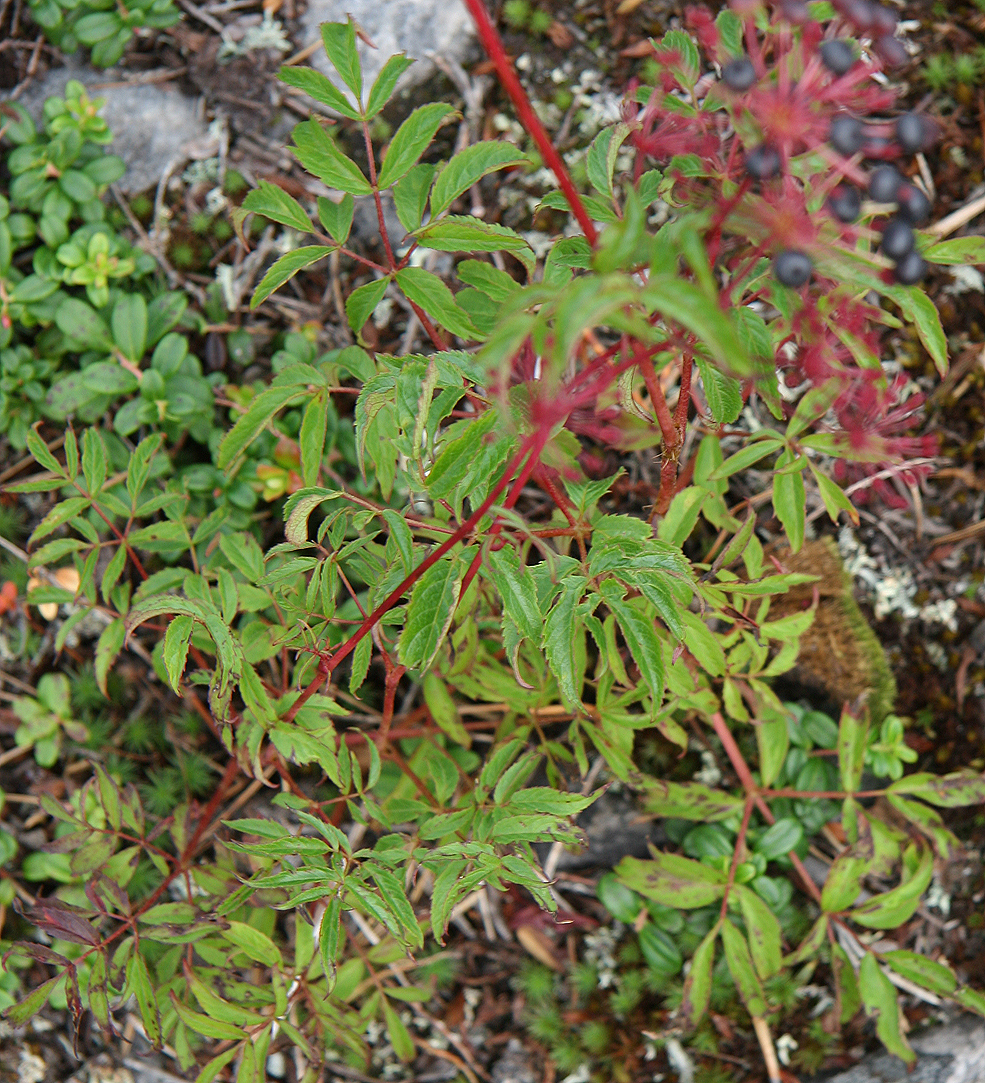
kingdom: Plantae
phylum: Tracheophyta
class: Magnoliopsida
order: Apiales
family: Araliaceae
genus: Aralia
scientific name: Aralia hispida
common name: Bristly sarsaparilla
